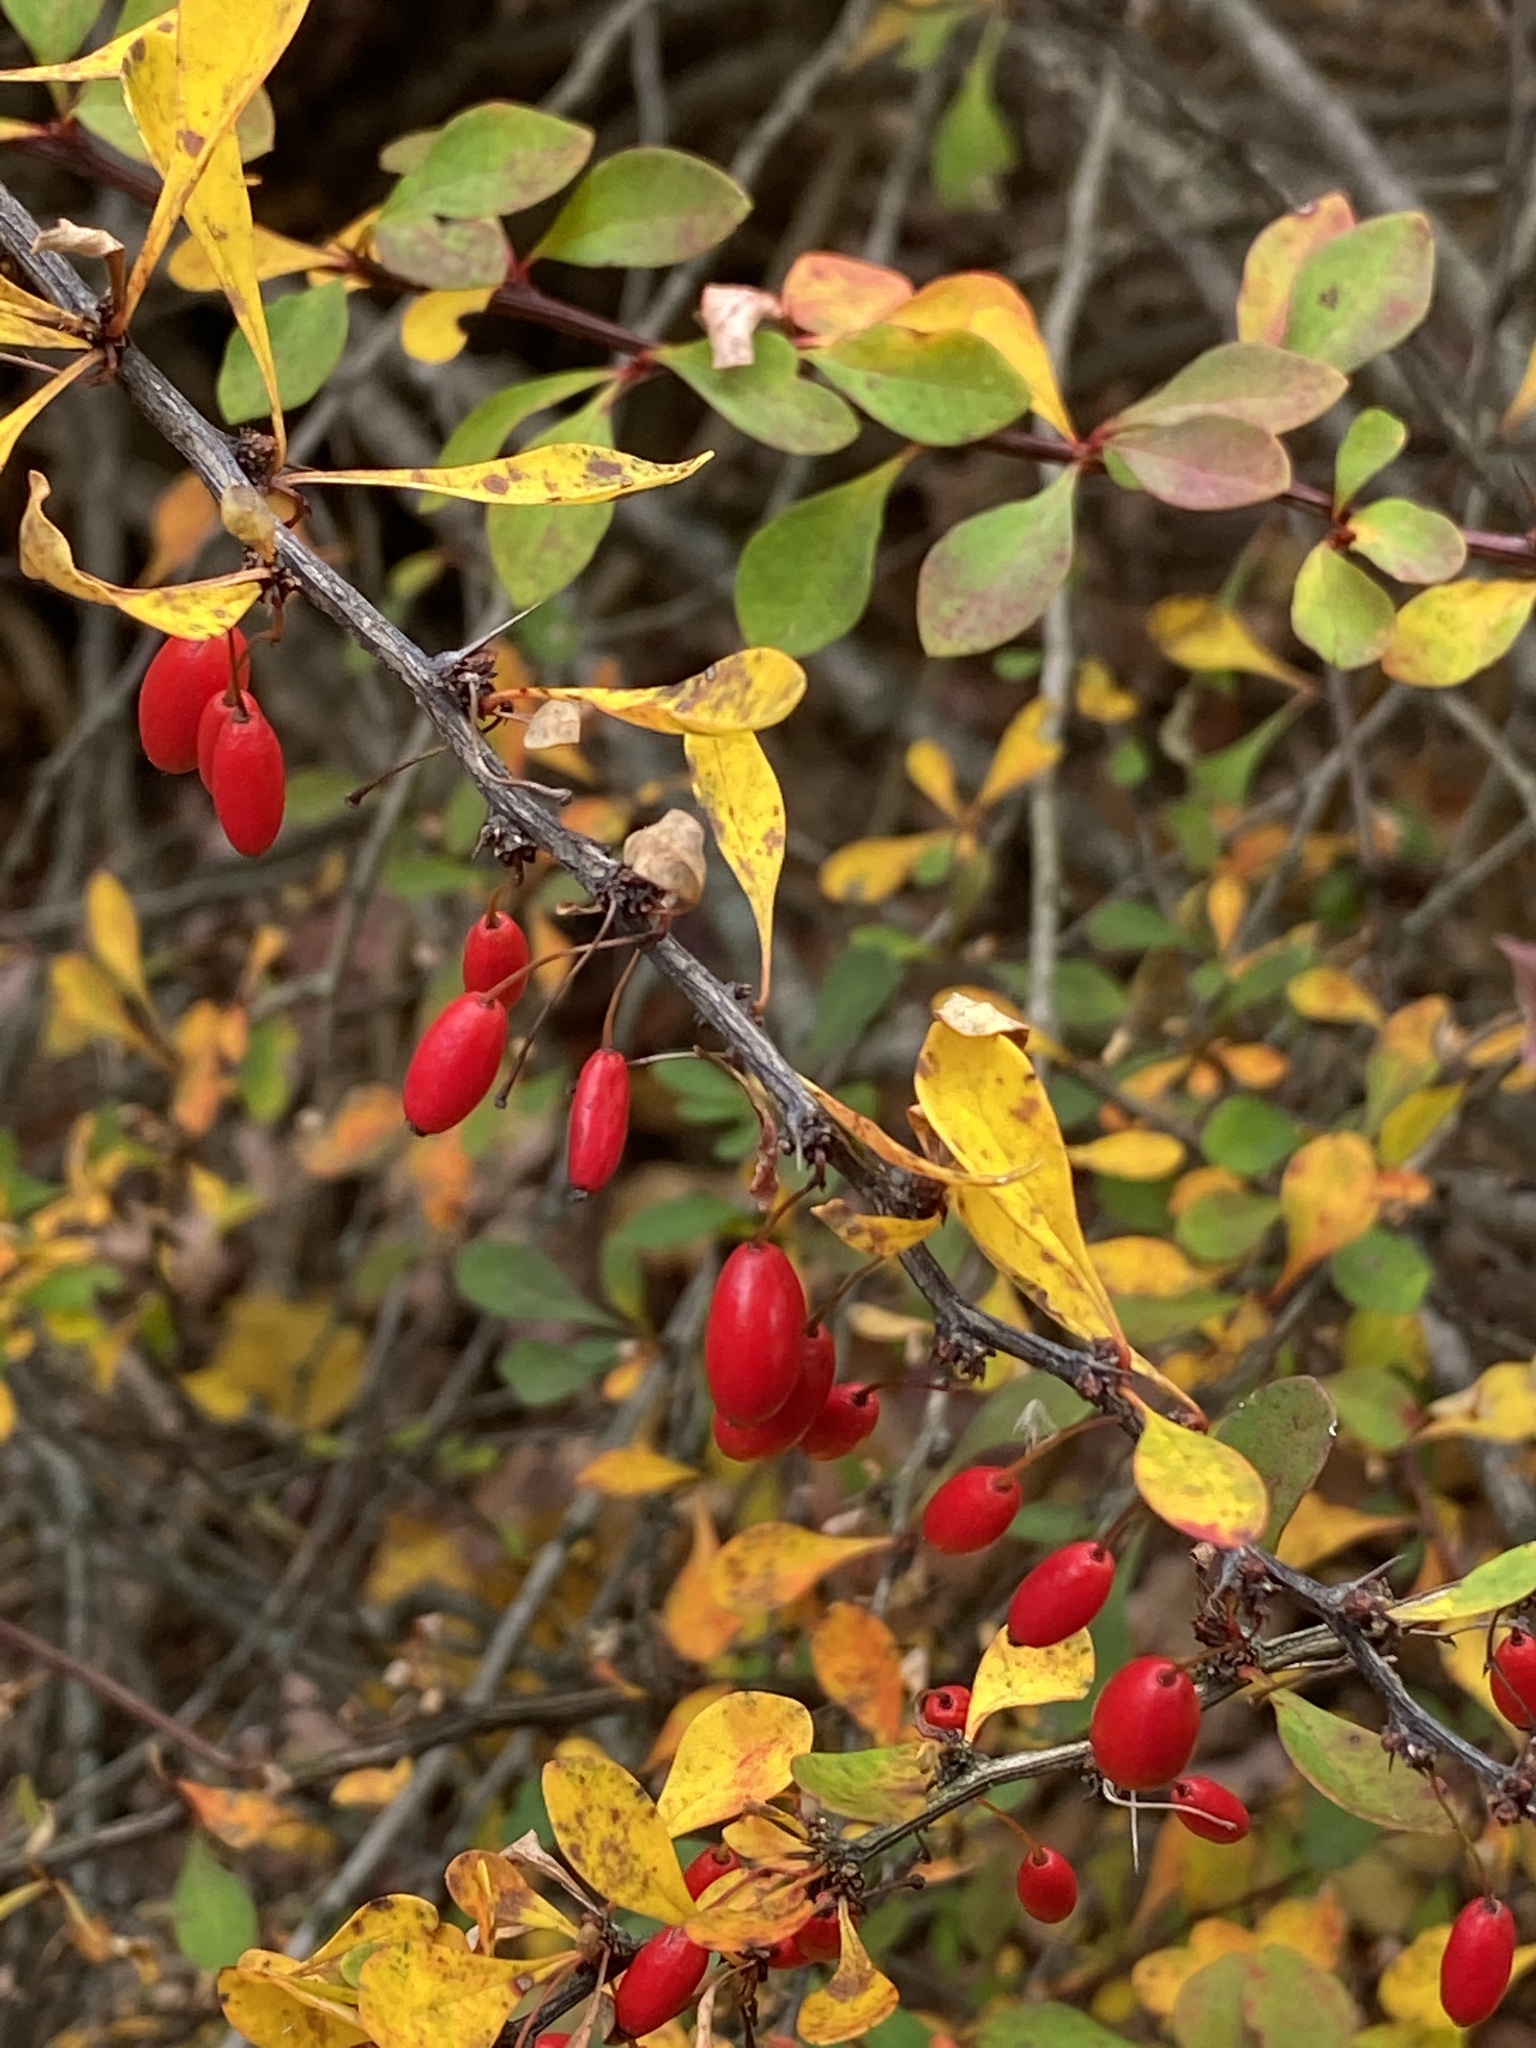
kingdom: Plantae
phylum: Tracheophyta
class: Magnoliopsida
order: Ranunculales
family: Berberidaceae
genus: Berberis
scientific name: Berberis thunbergii
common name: Japanese barberry
